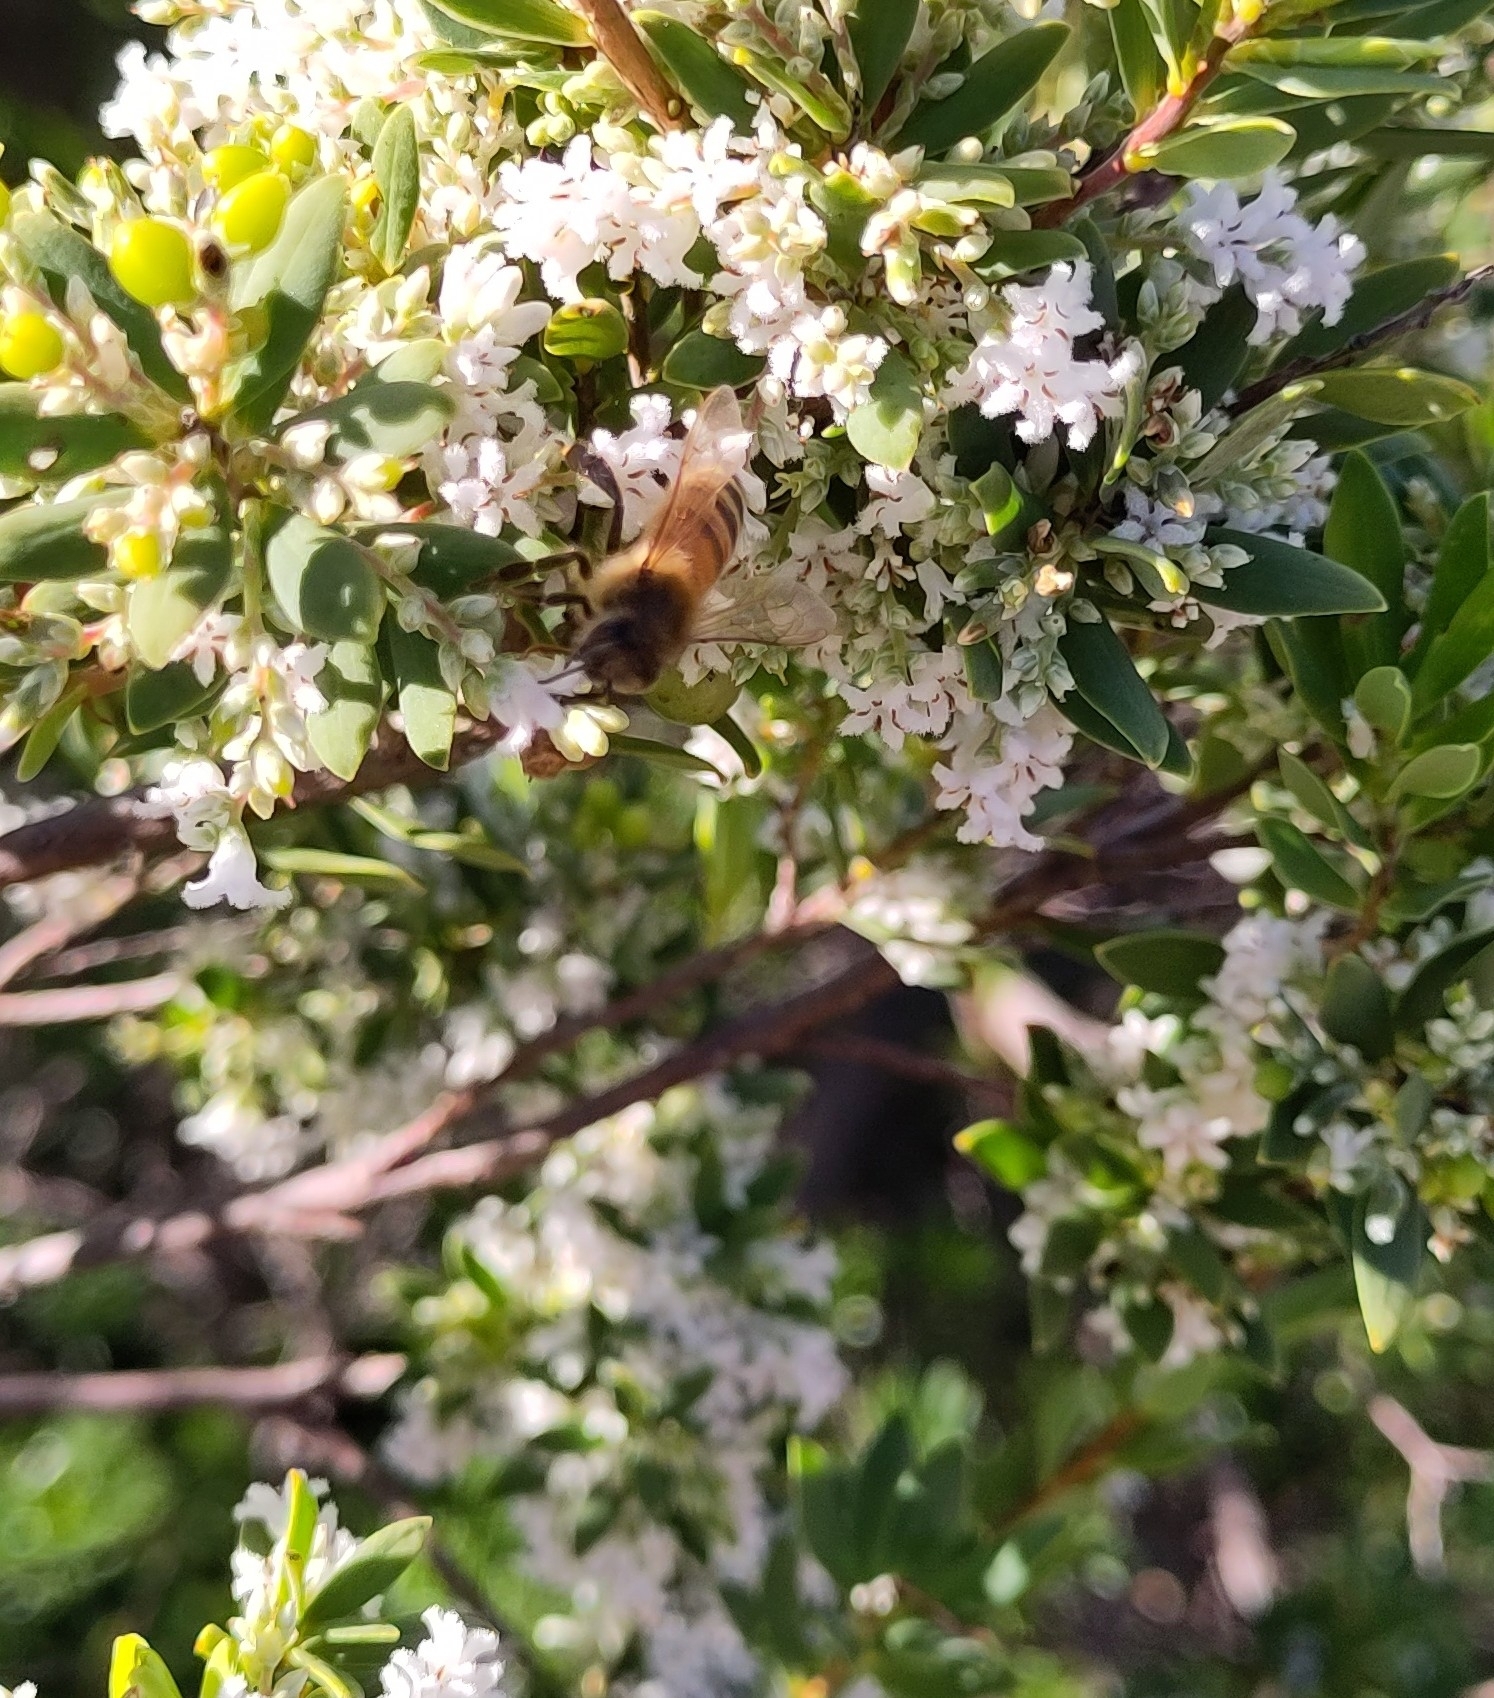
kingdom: Animalia
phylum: Arthropoda
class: Insecta
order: Hymenoptera
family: Apidae
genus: Apis
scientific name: Apis mellifera
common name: Honey bee
